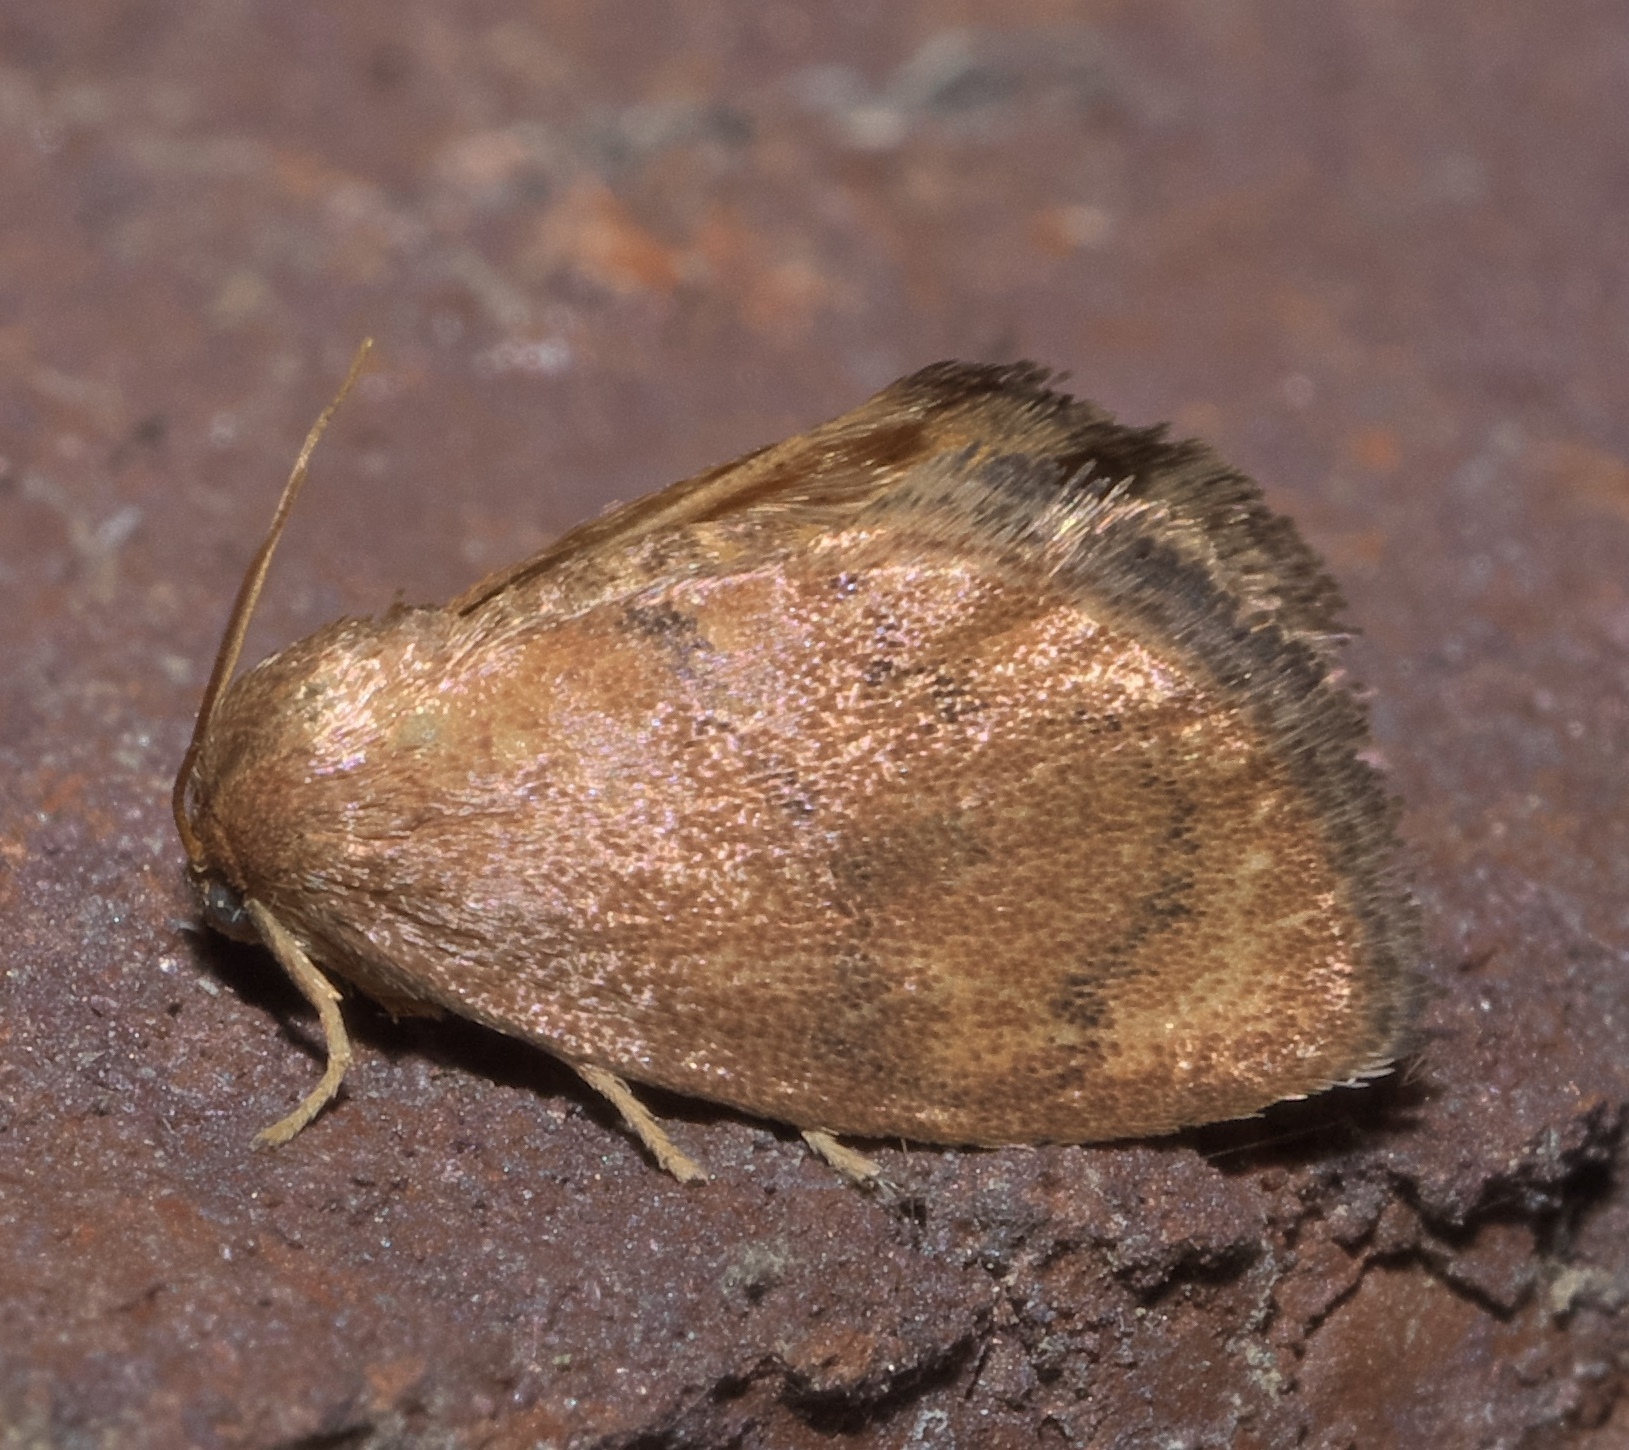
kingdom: Animalia
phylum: Arthropoda
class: Insecta
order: Lepidoptera
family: Limacodidae
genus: Heterogenea
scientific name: Heterogenea shurtleffi
